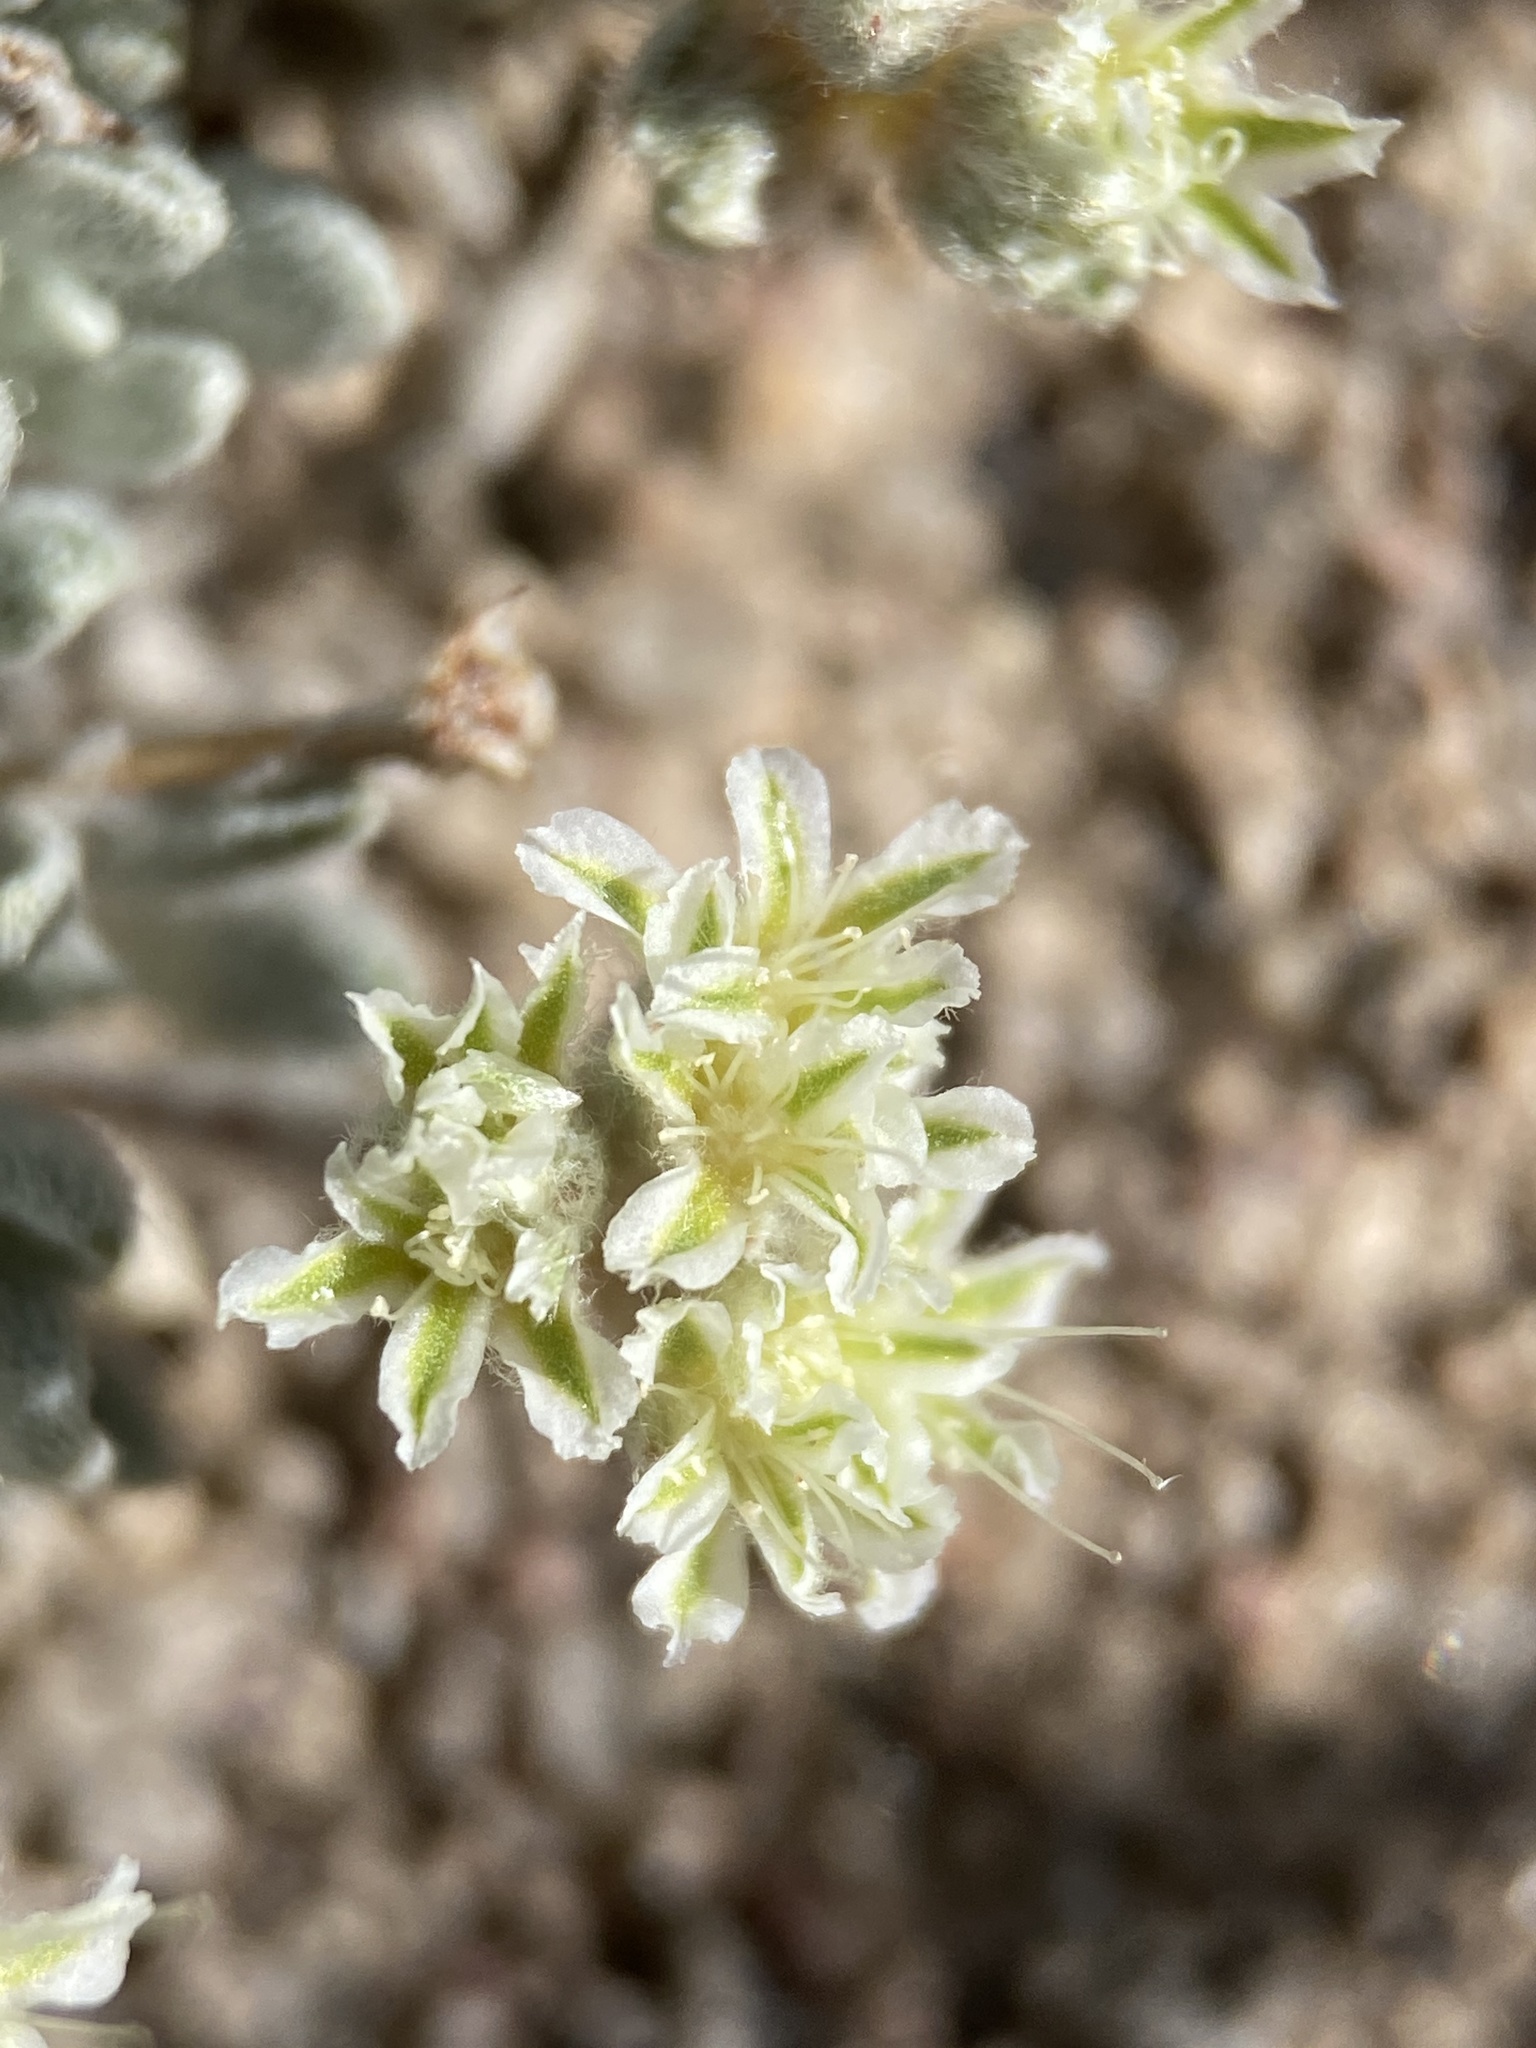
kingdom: Plantae
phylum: Tracheophyta
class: Magnoliopsida
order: Caryophyllales
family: Polygonaceae
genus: Eriogonum
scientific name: Eriogonum shockleyi
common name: Shockley's wild buckwheat
